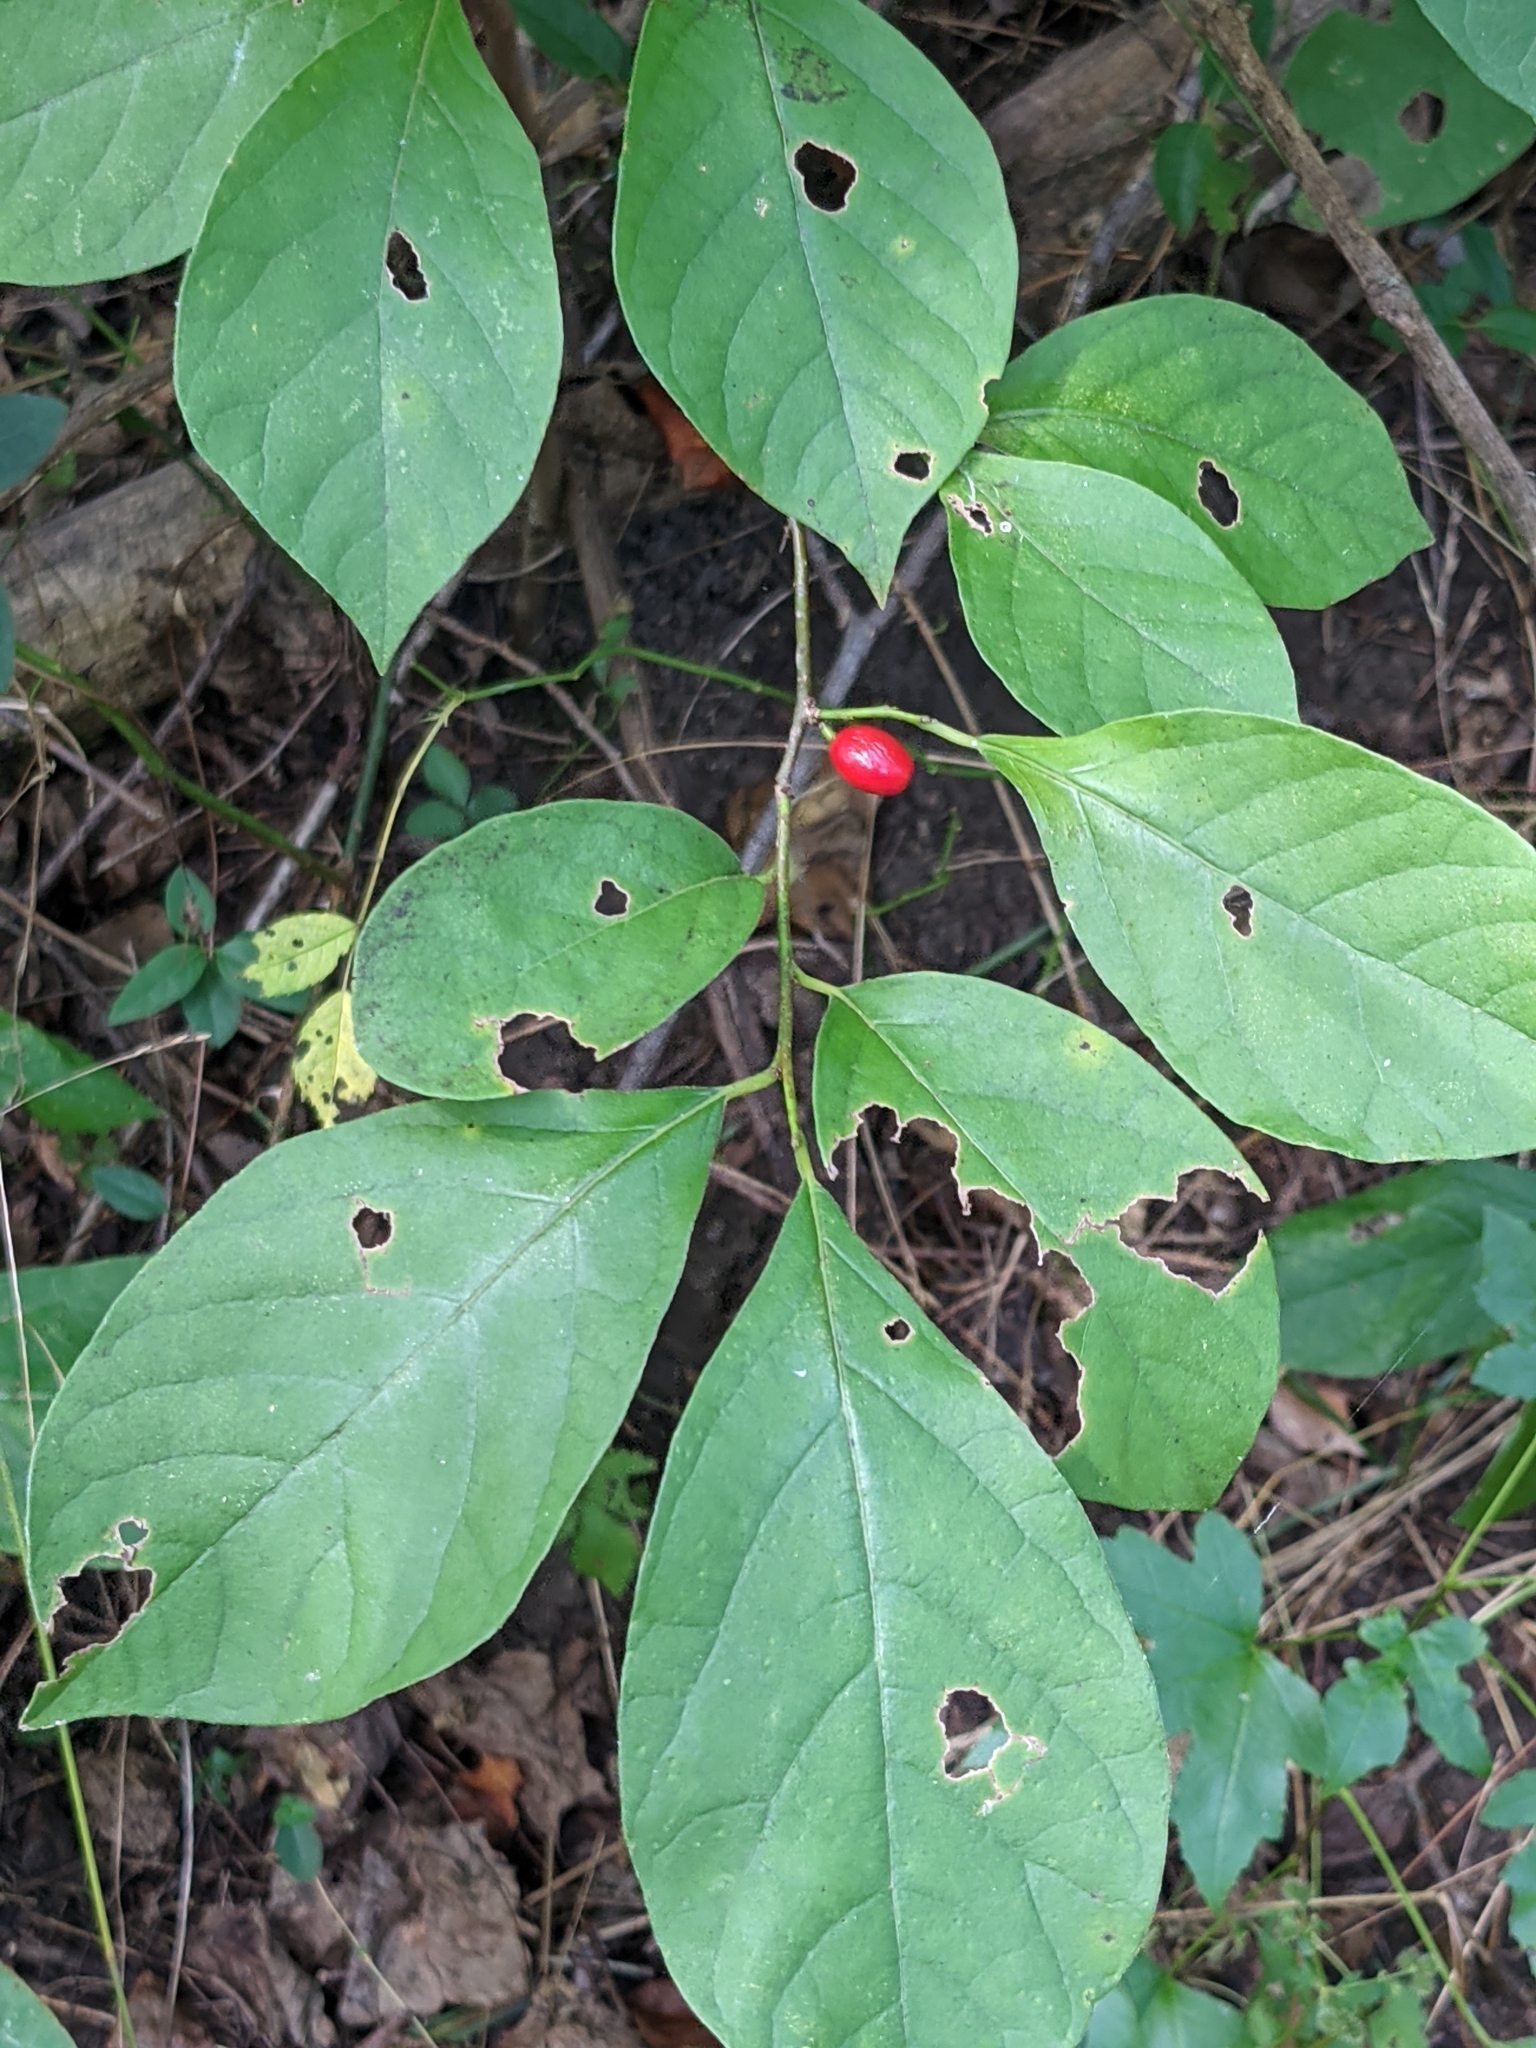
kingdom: Plantae
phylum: Tracheophyta
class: Magnoliopsida
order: Laurales
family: Lauraceae
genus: Lindera
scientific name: Lindera benzoin
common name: Spicebush
